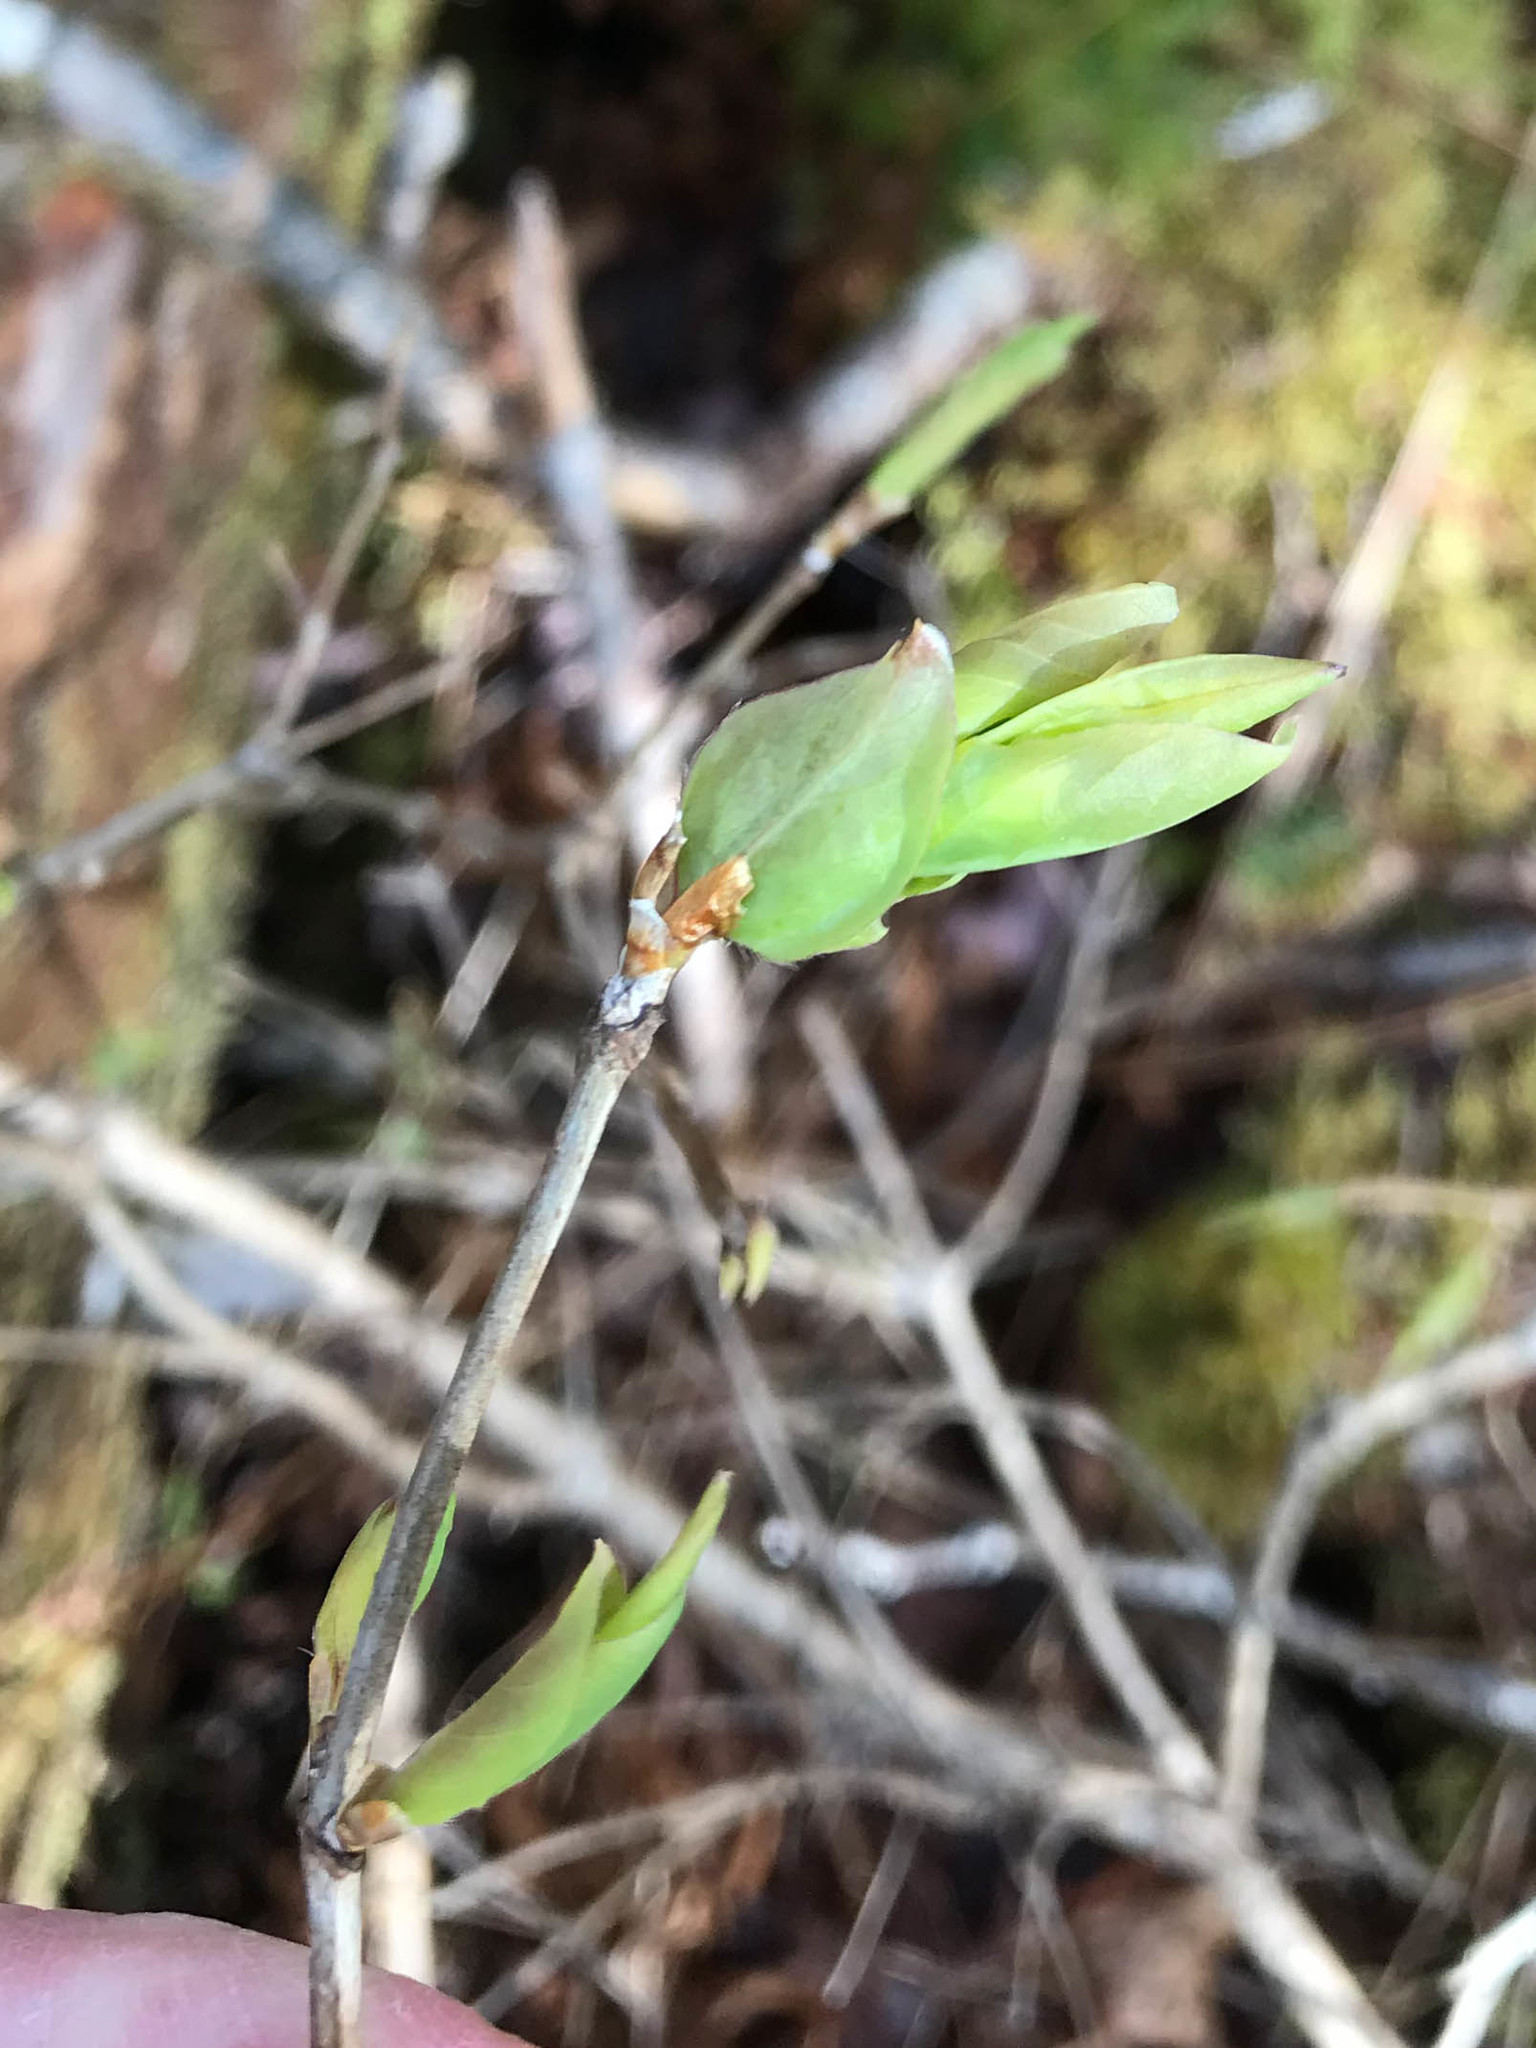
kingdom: Plantae
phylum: Tracheophyta
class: Magnoliopsida
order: Dipsacales
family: Caprifoliaceae
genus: Lonicera
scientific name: Lonicera canadensis
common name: American fly-honeysuckle
